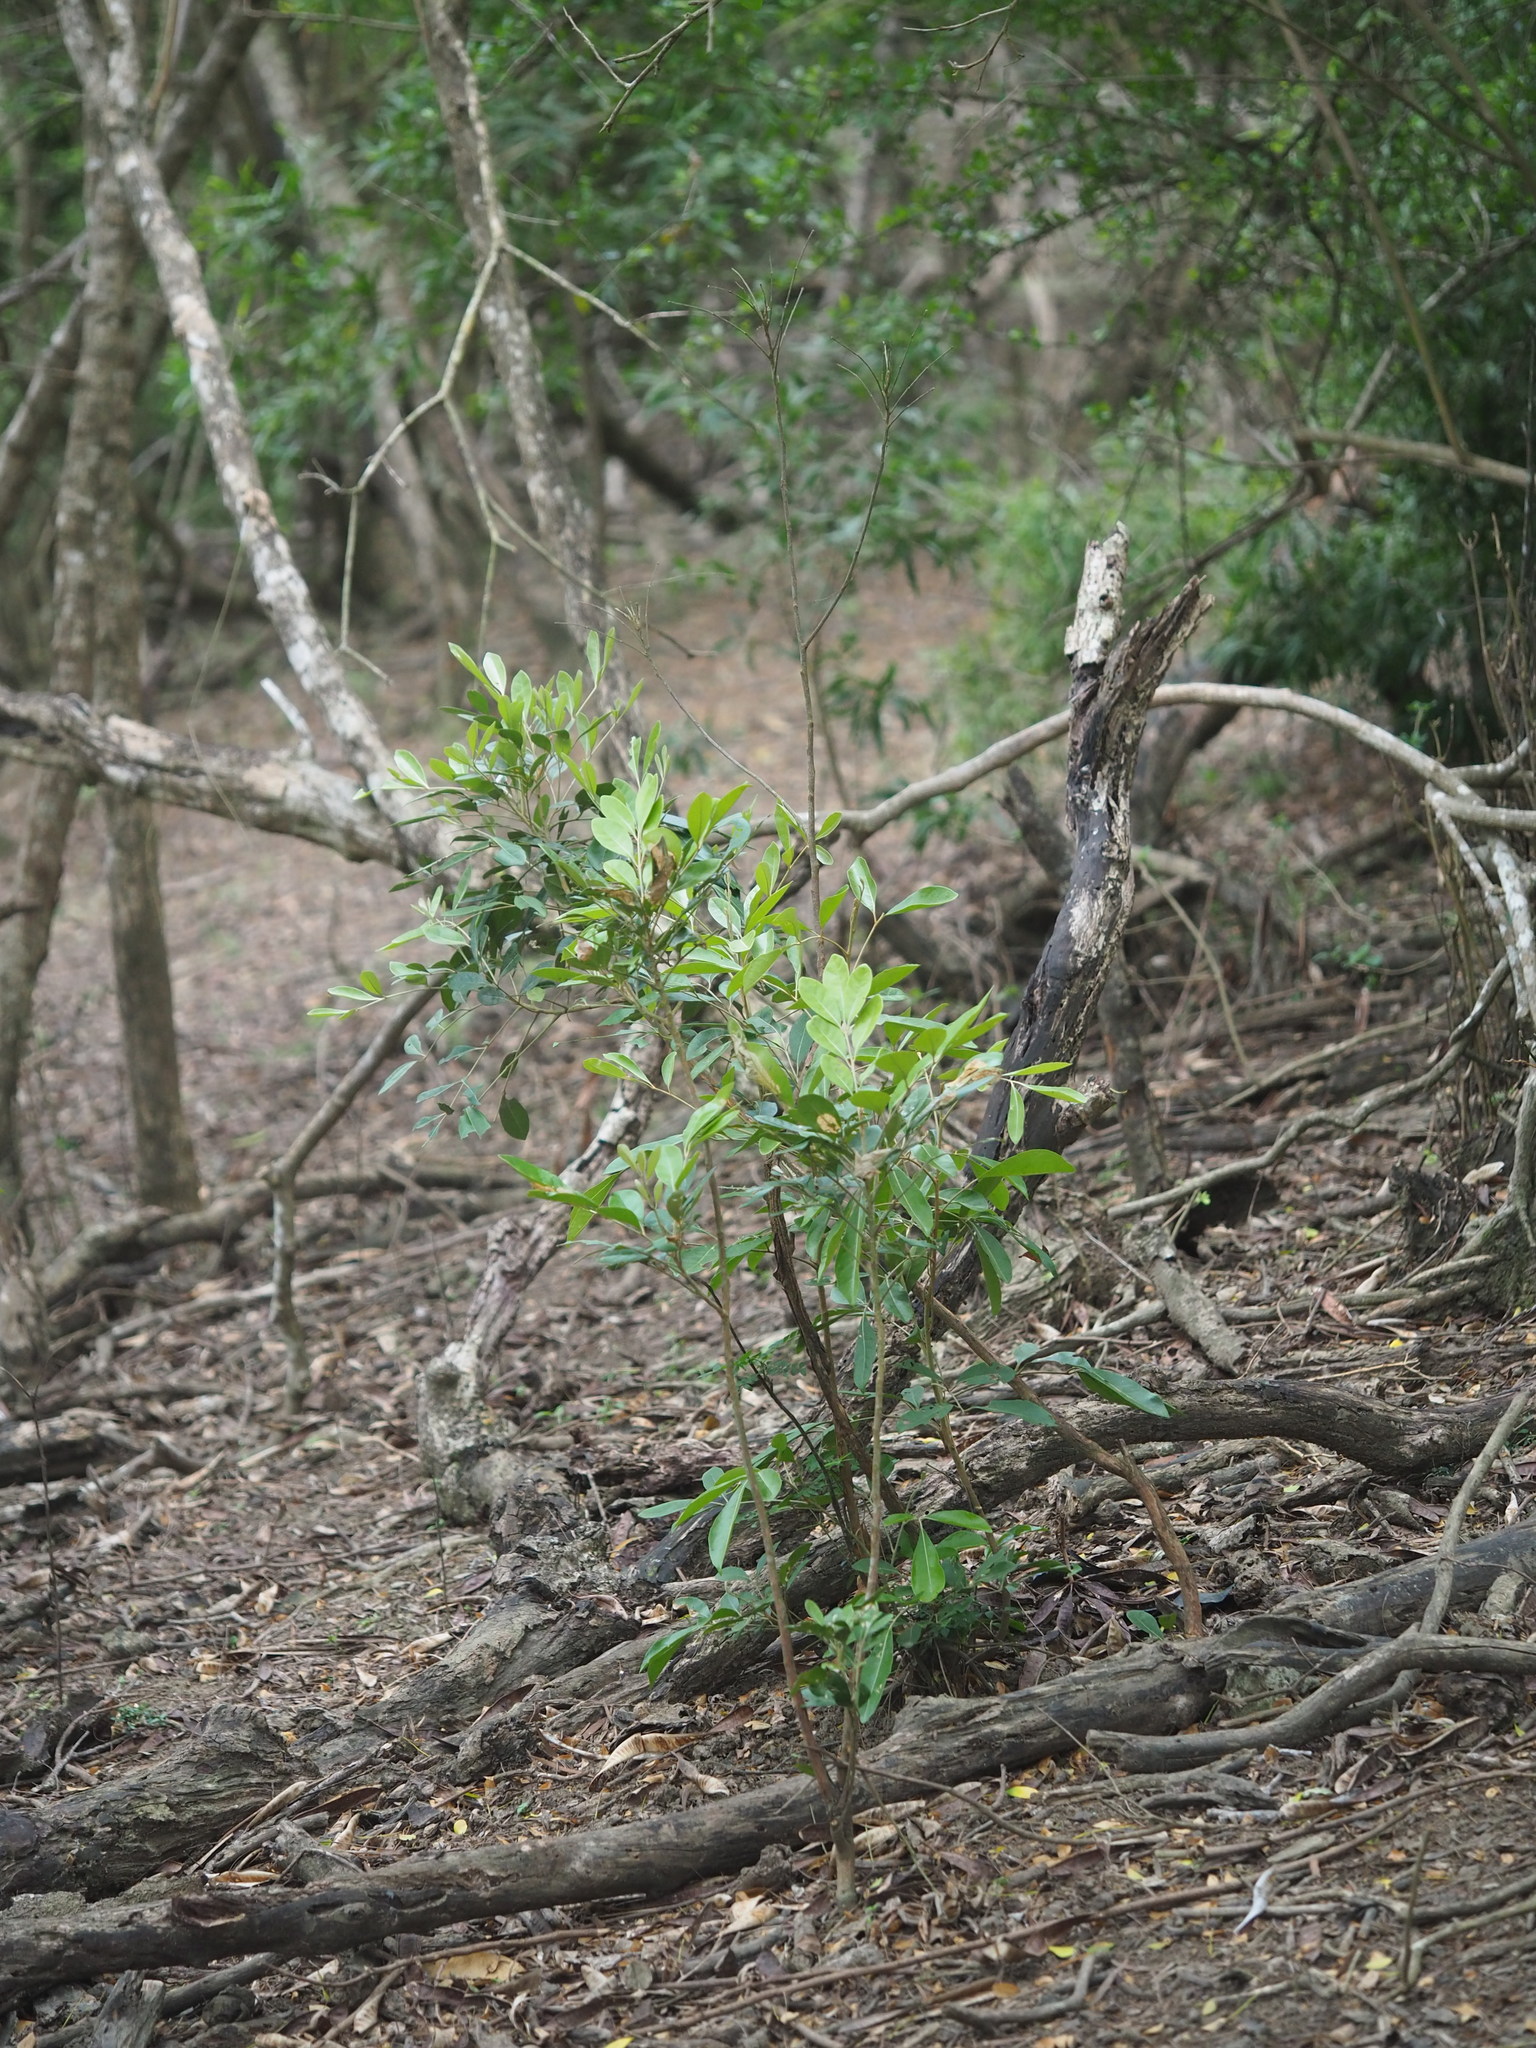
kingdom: Plantae
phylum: Tracheophyta
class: Magnoliopsida
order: Sapindales
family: Meliaceae
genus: Aglaia
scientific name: Aglaia elaeagnoidea
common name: Droopyleaf
